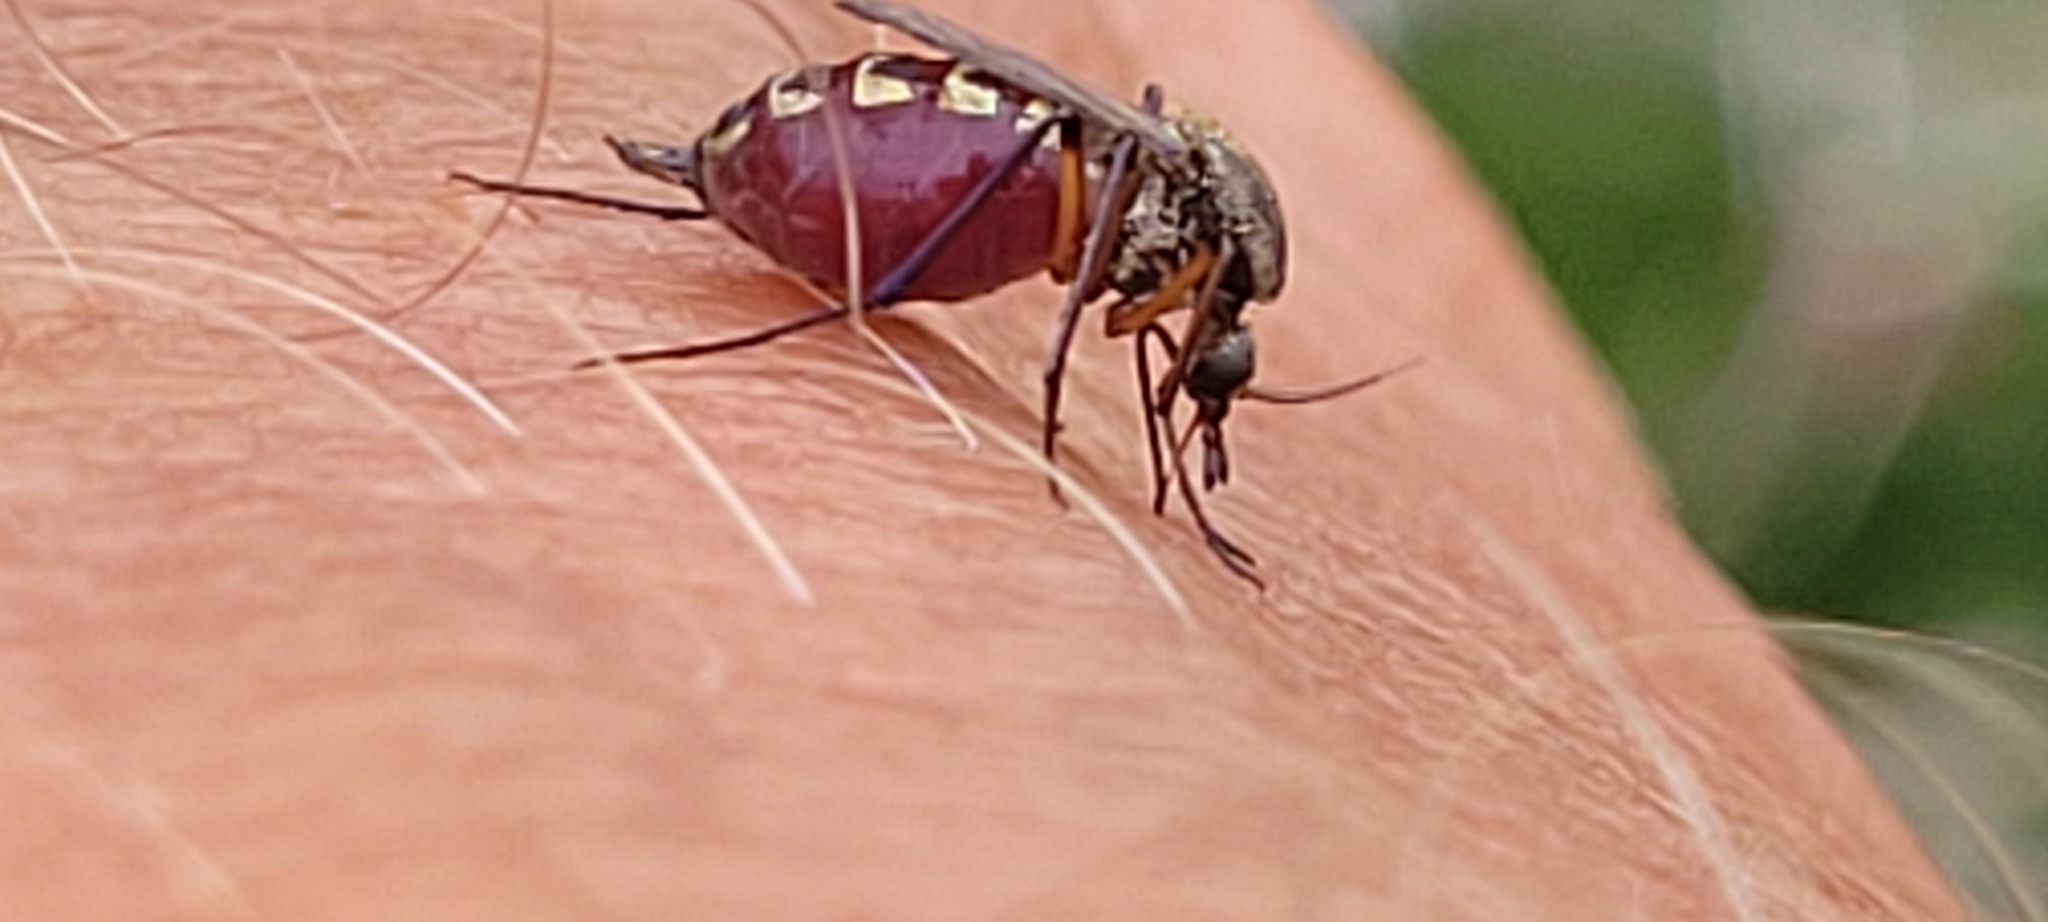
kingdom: Animalia
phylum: Arthropoda
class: Insecta
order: Diptera
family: Culicidae
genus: Psorophora
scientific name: Psorophora cyanescens
